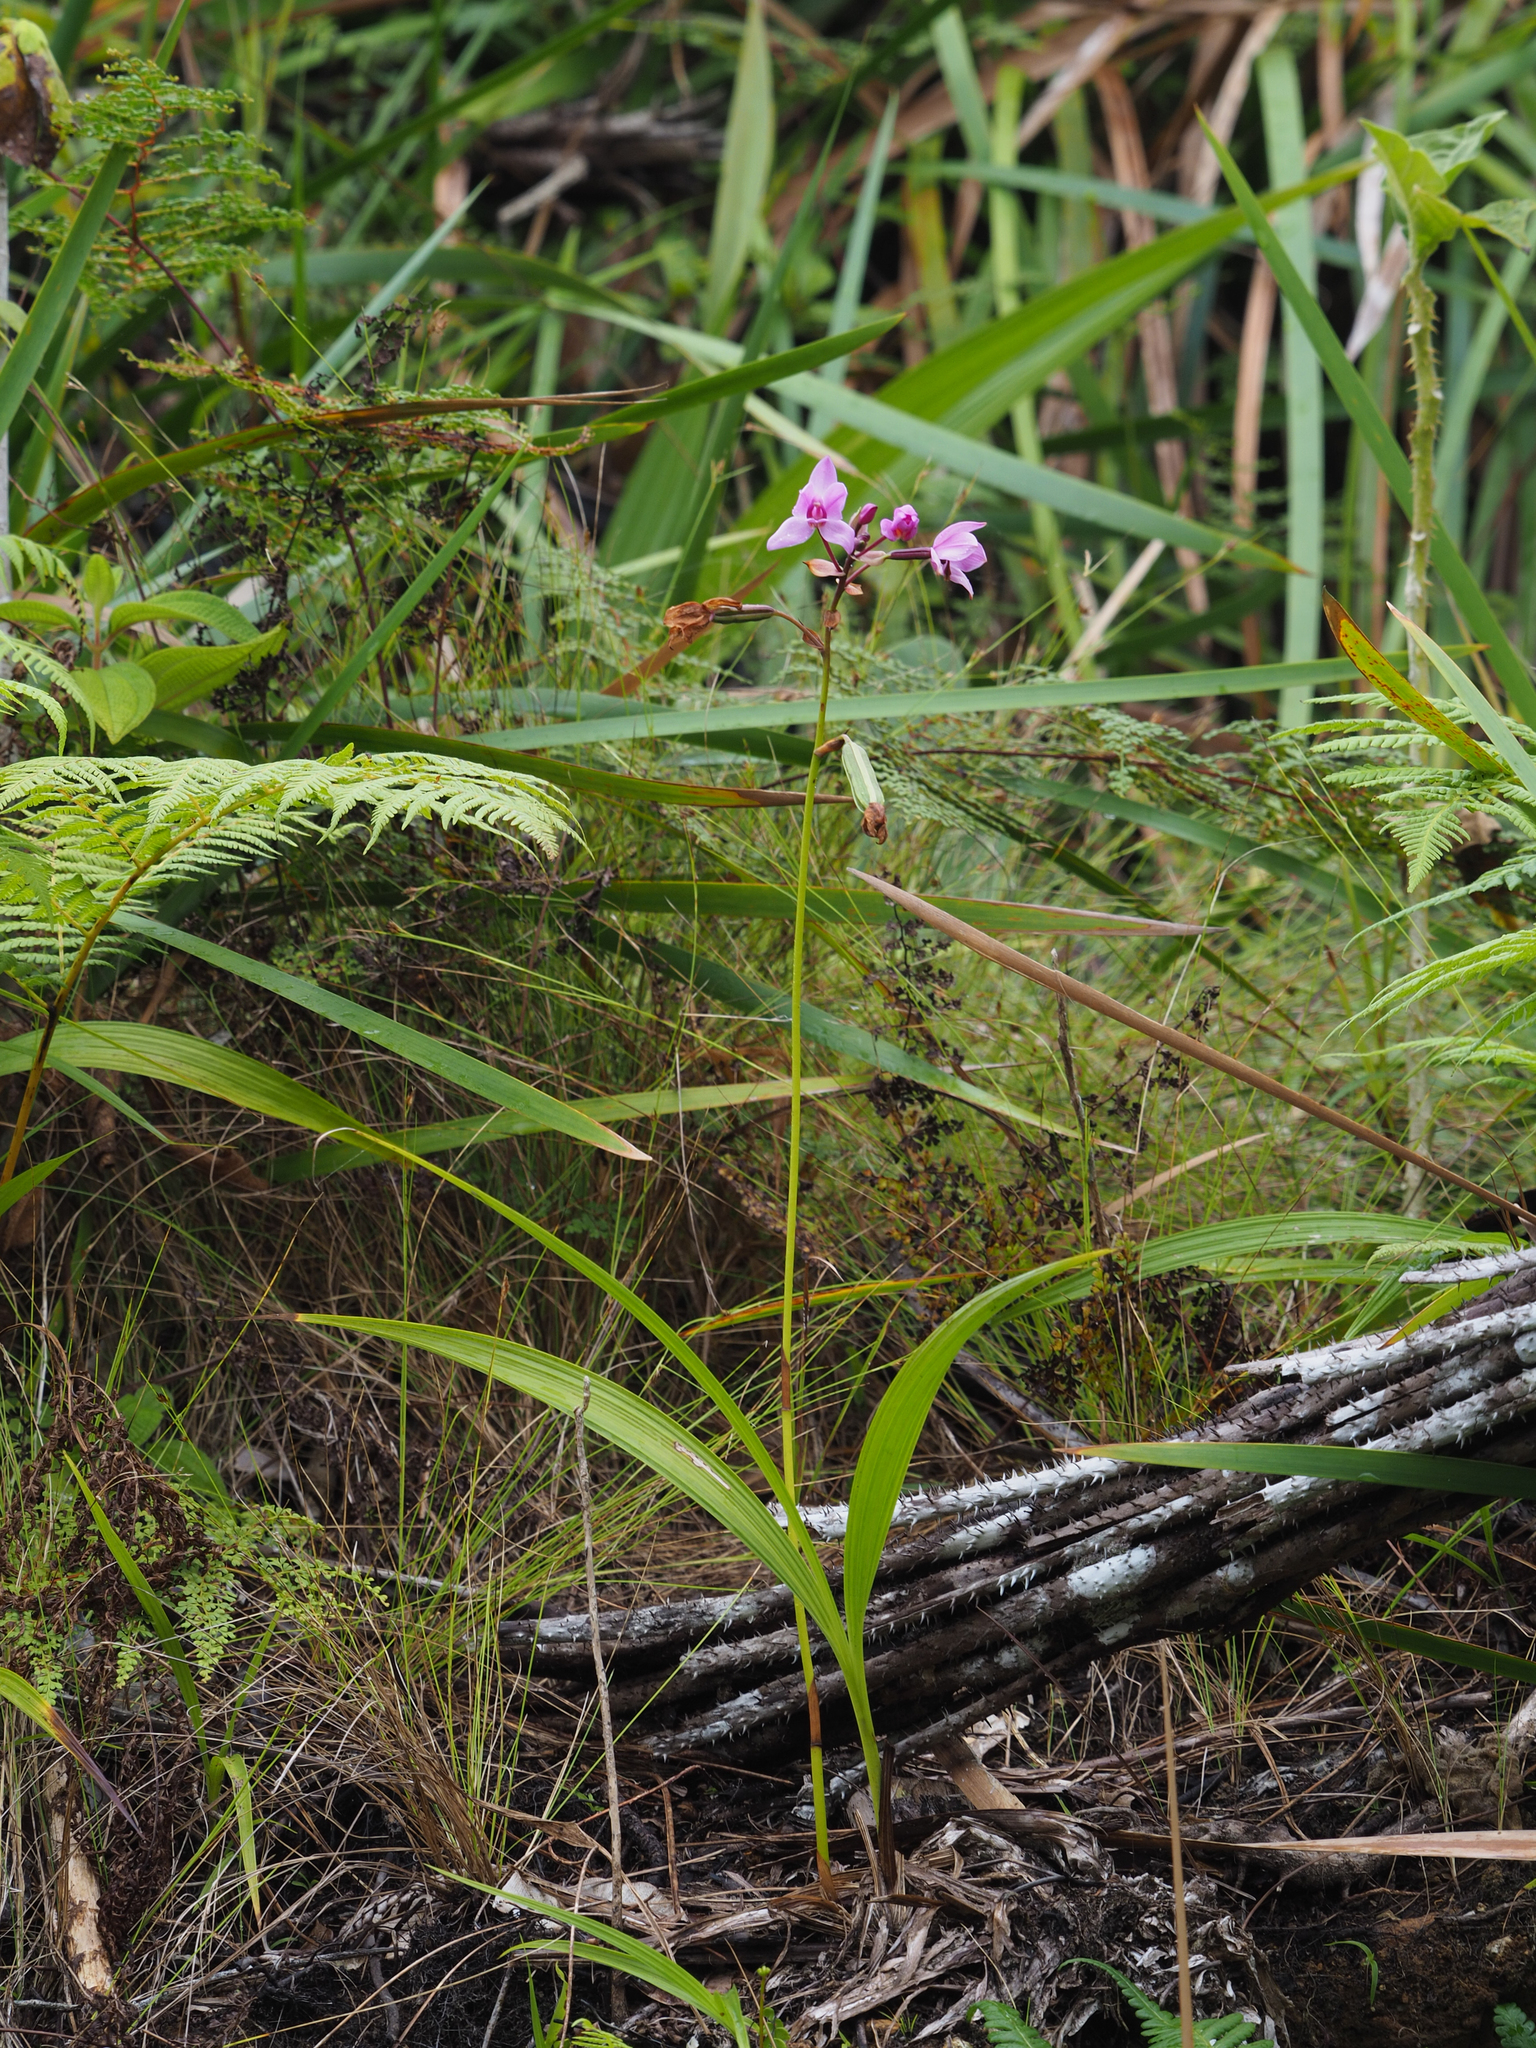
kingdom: Plantae
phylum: Tracheophyta
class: Liliopsida
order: Asparagales
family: Orchidaceae
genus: Spathoglottis
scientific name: Spathoglottis plicata
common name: Philippine ground orchid
